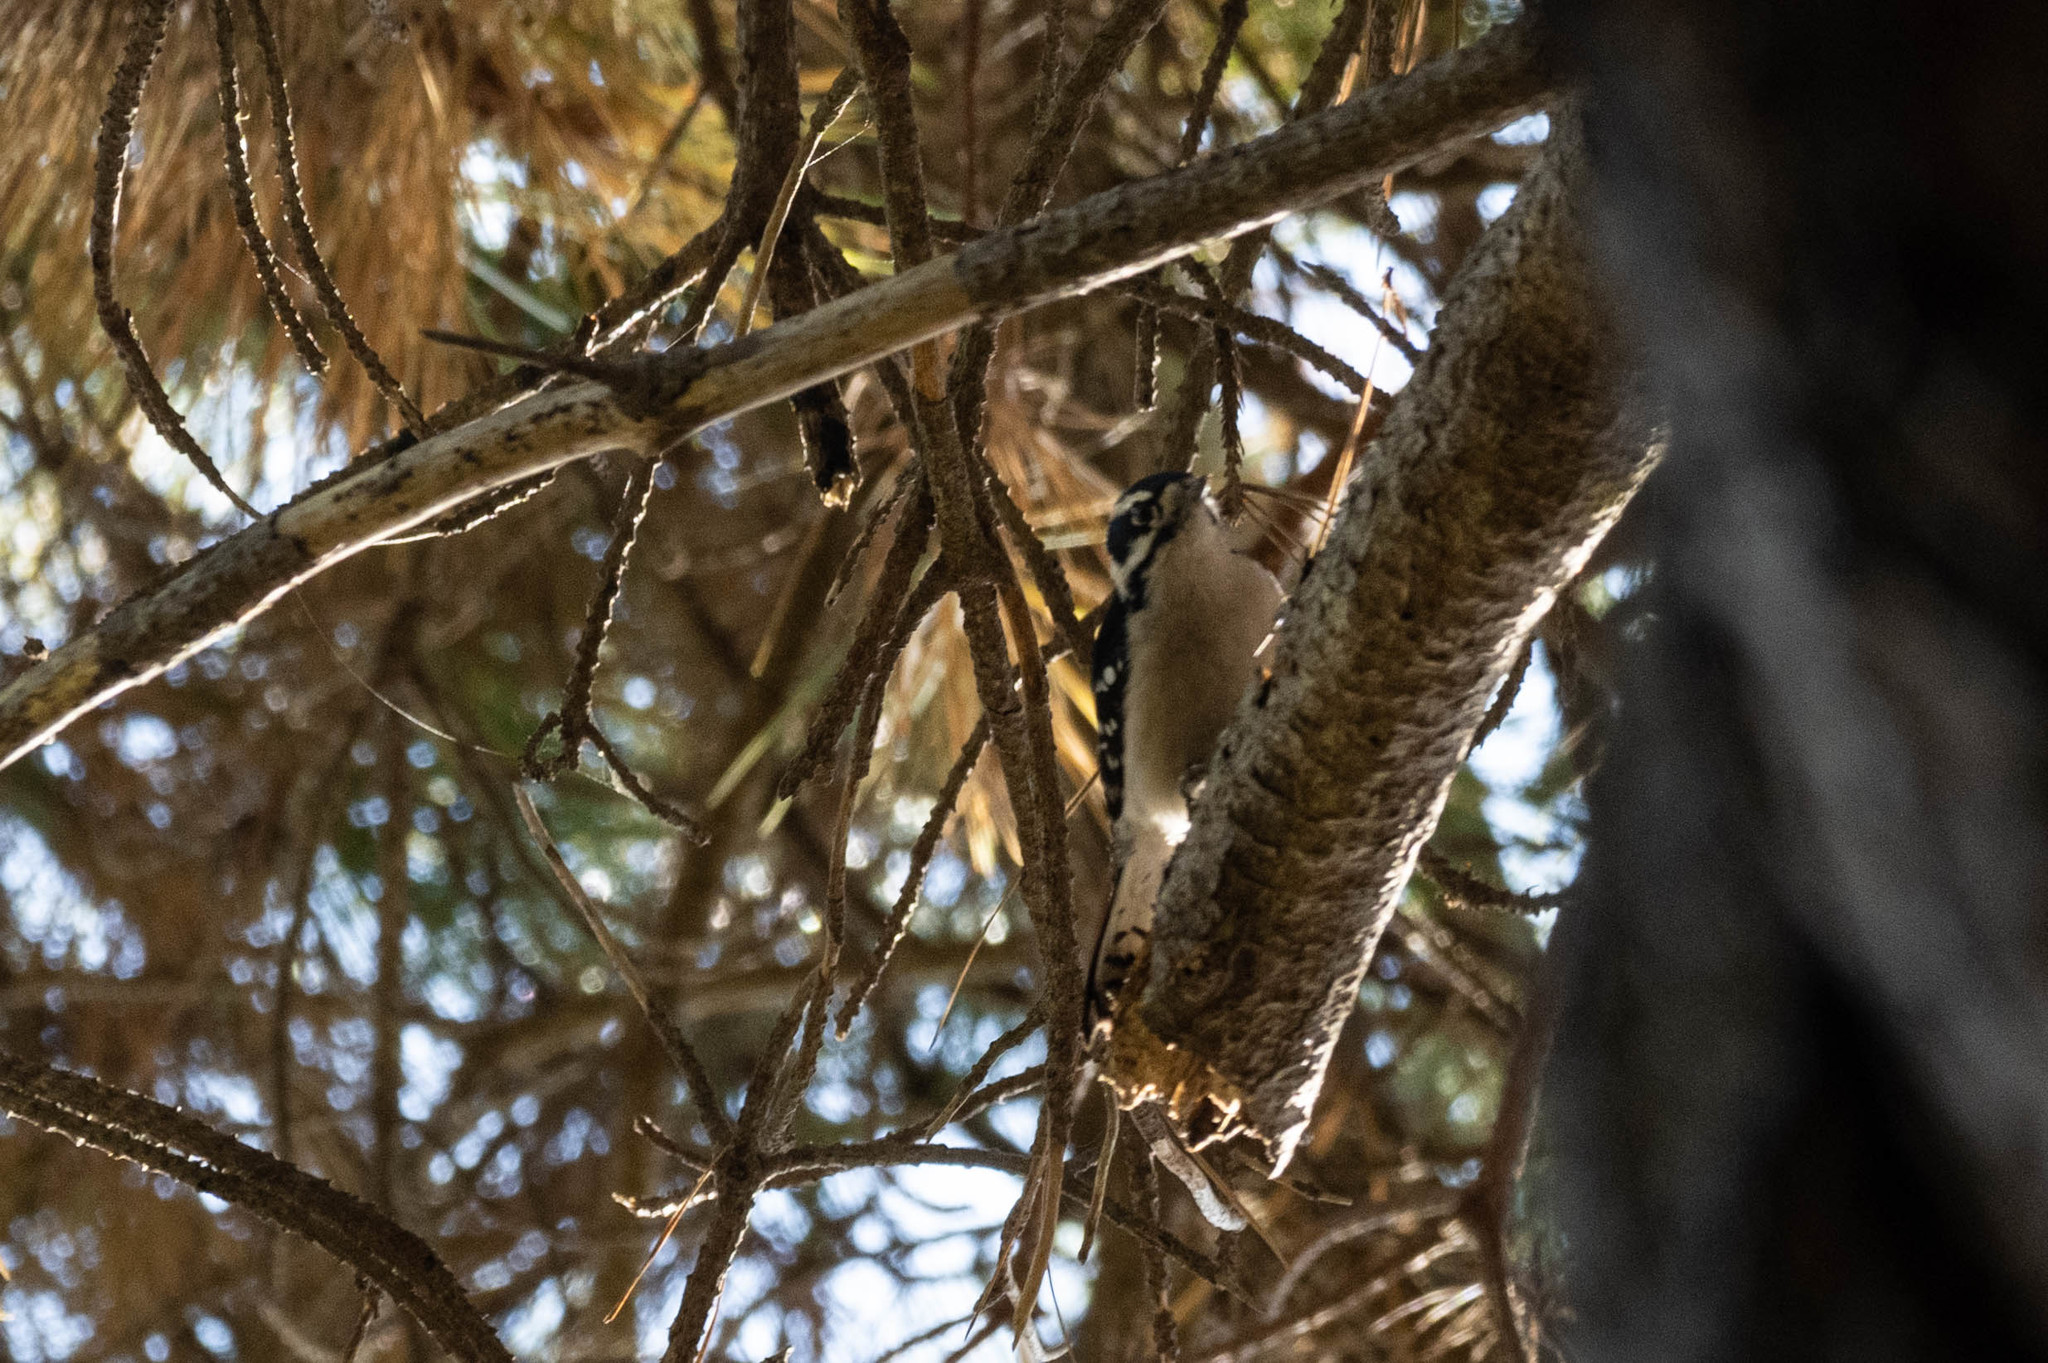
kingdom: Animalia
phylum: Chordata
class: Aves
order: Piciformes
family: Picidae
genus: Dryobates
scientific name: Dryobates pubescens
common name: Downy woodpecker
